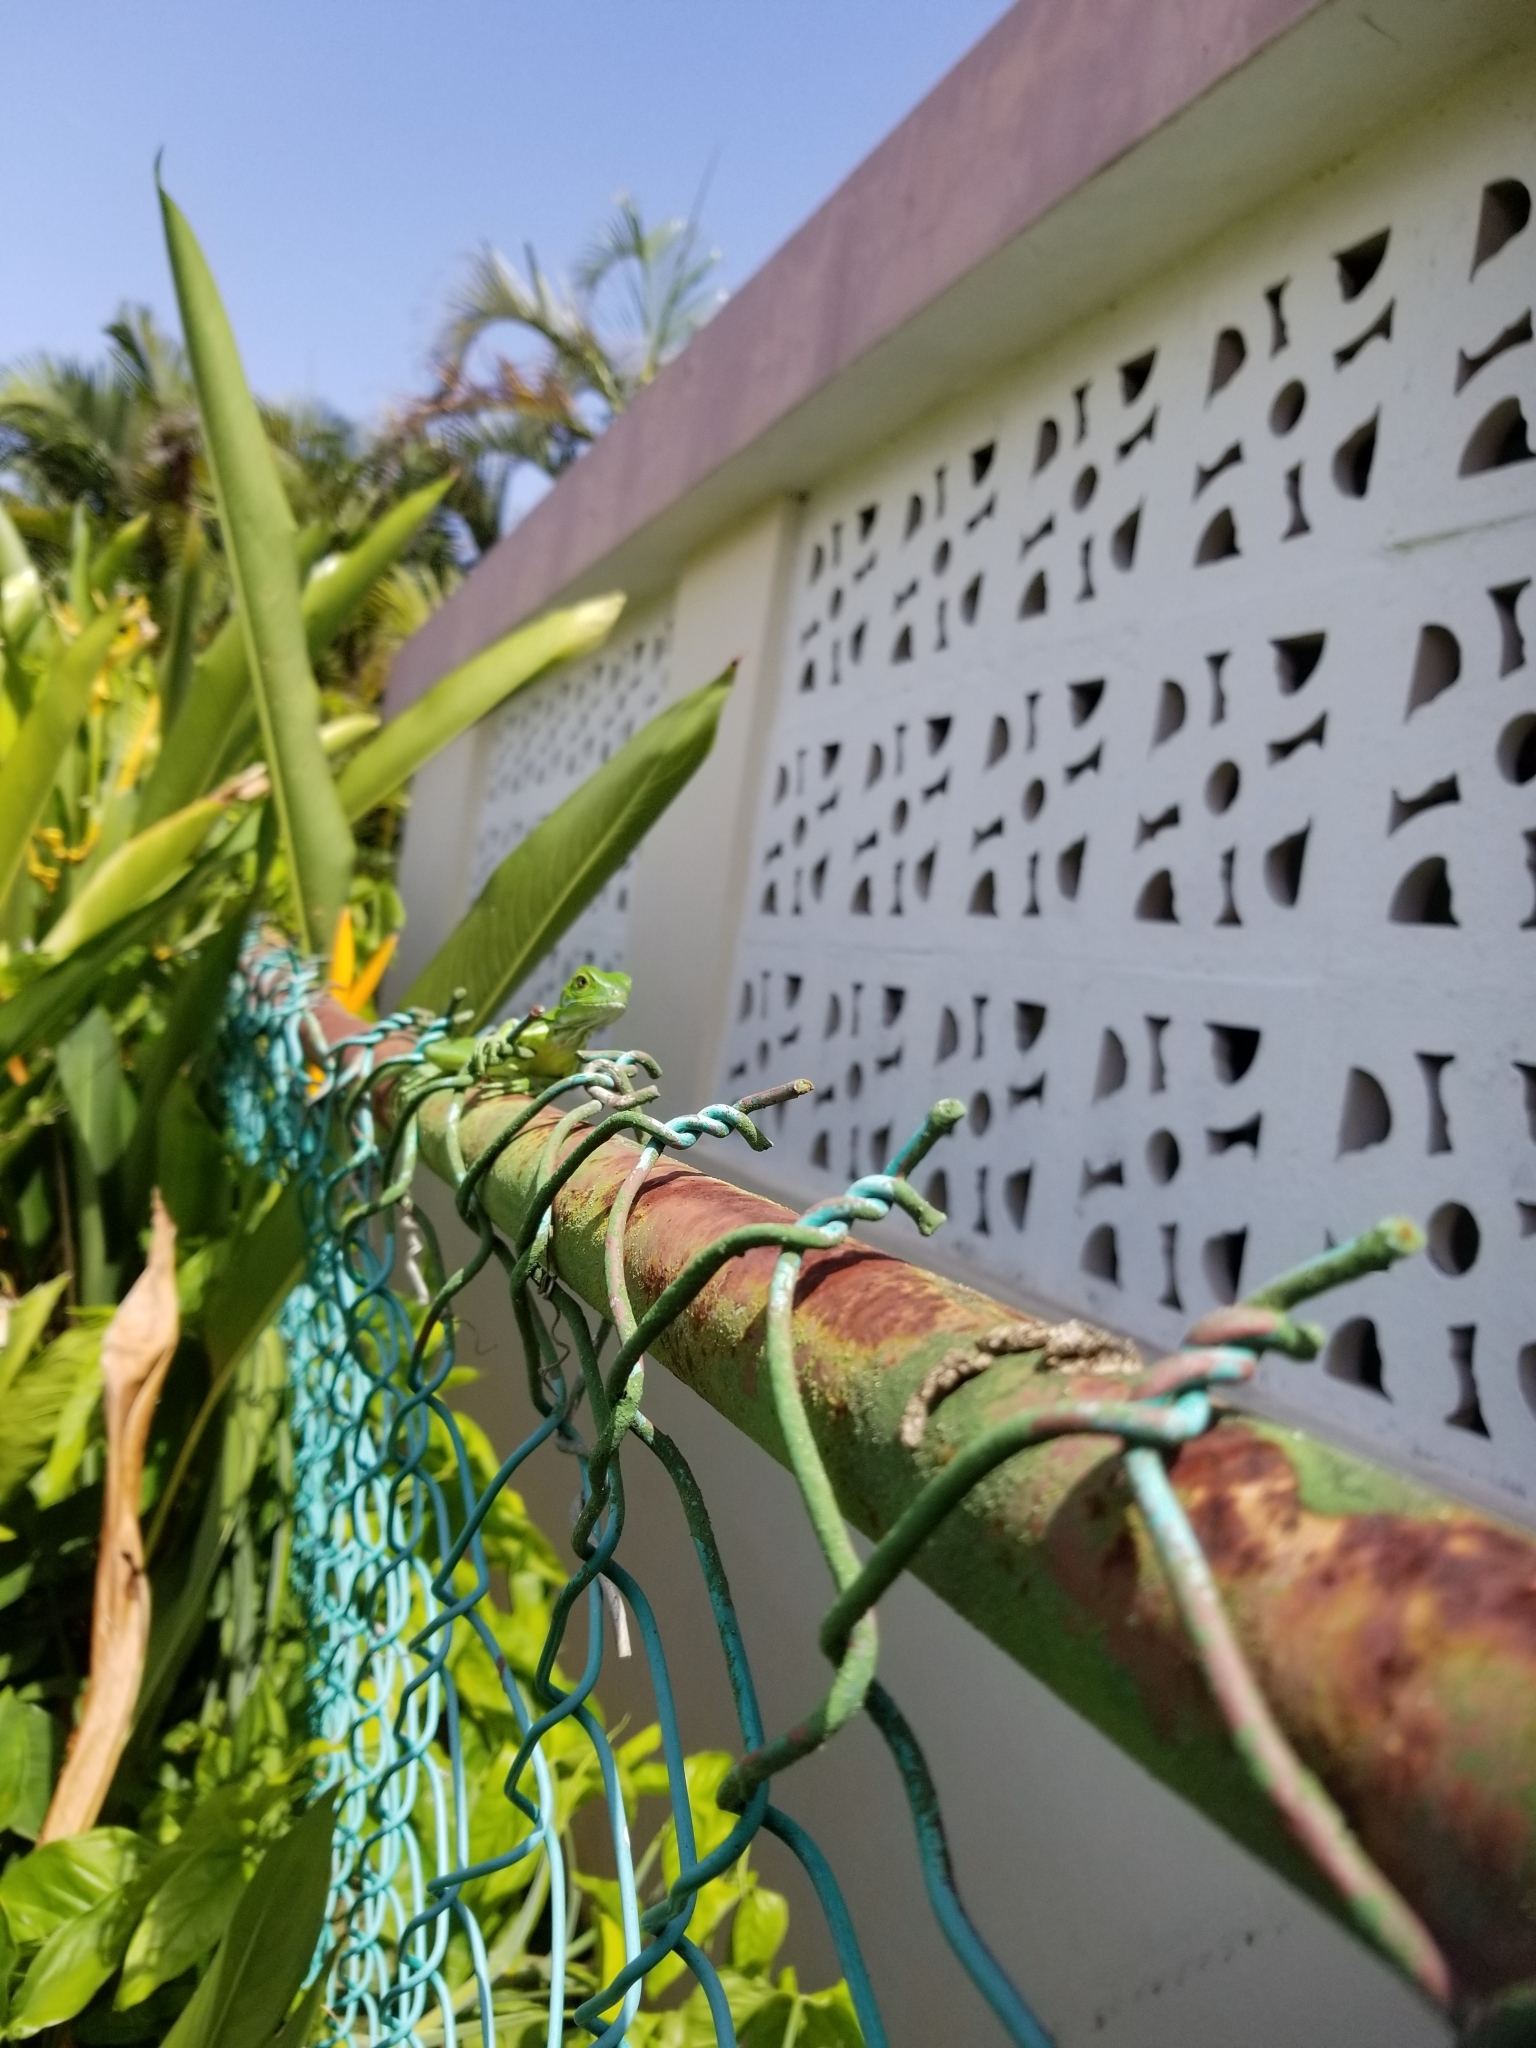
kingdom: Animalia
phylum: Chordata
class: Squamata
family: Iguanidae
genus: Iguana
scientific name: Iguana iguana
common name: Green iguana
